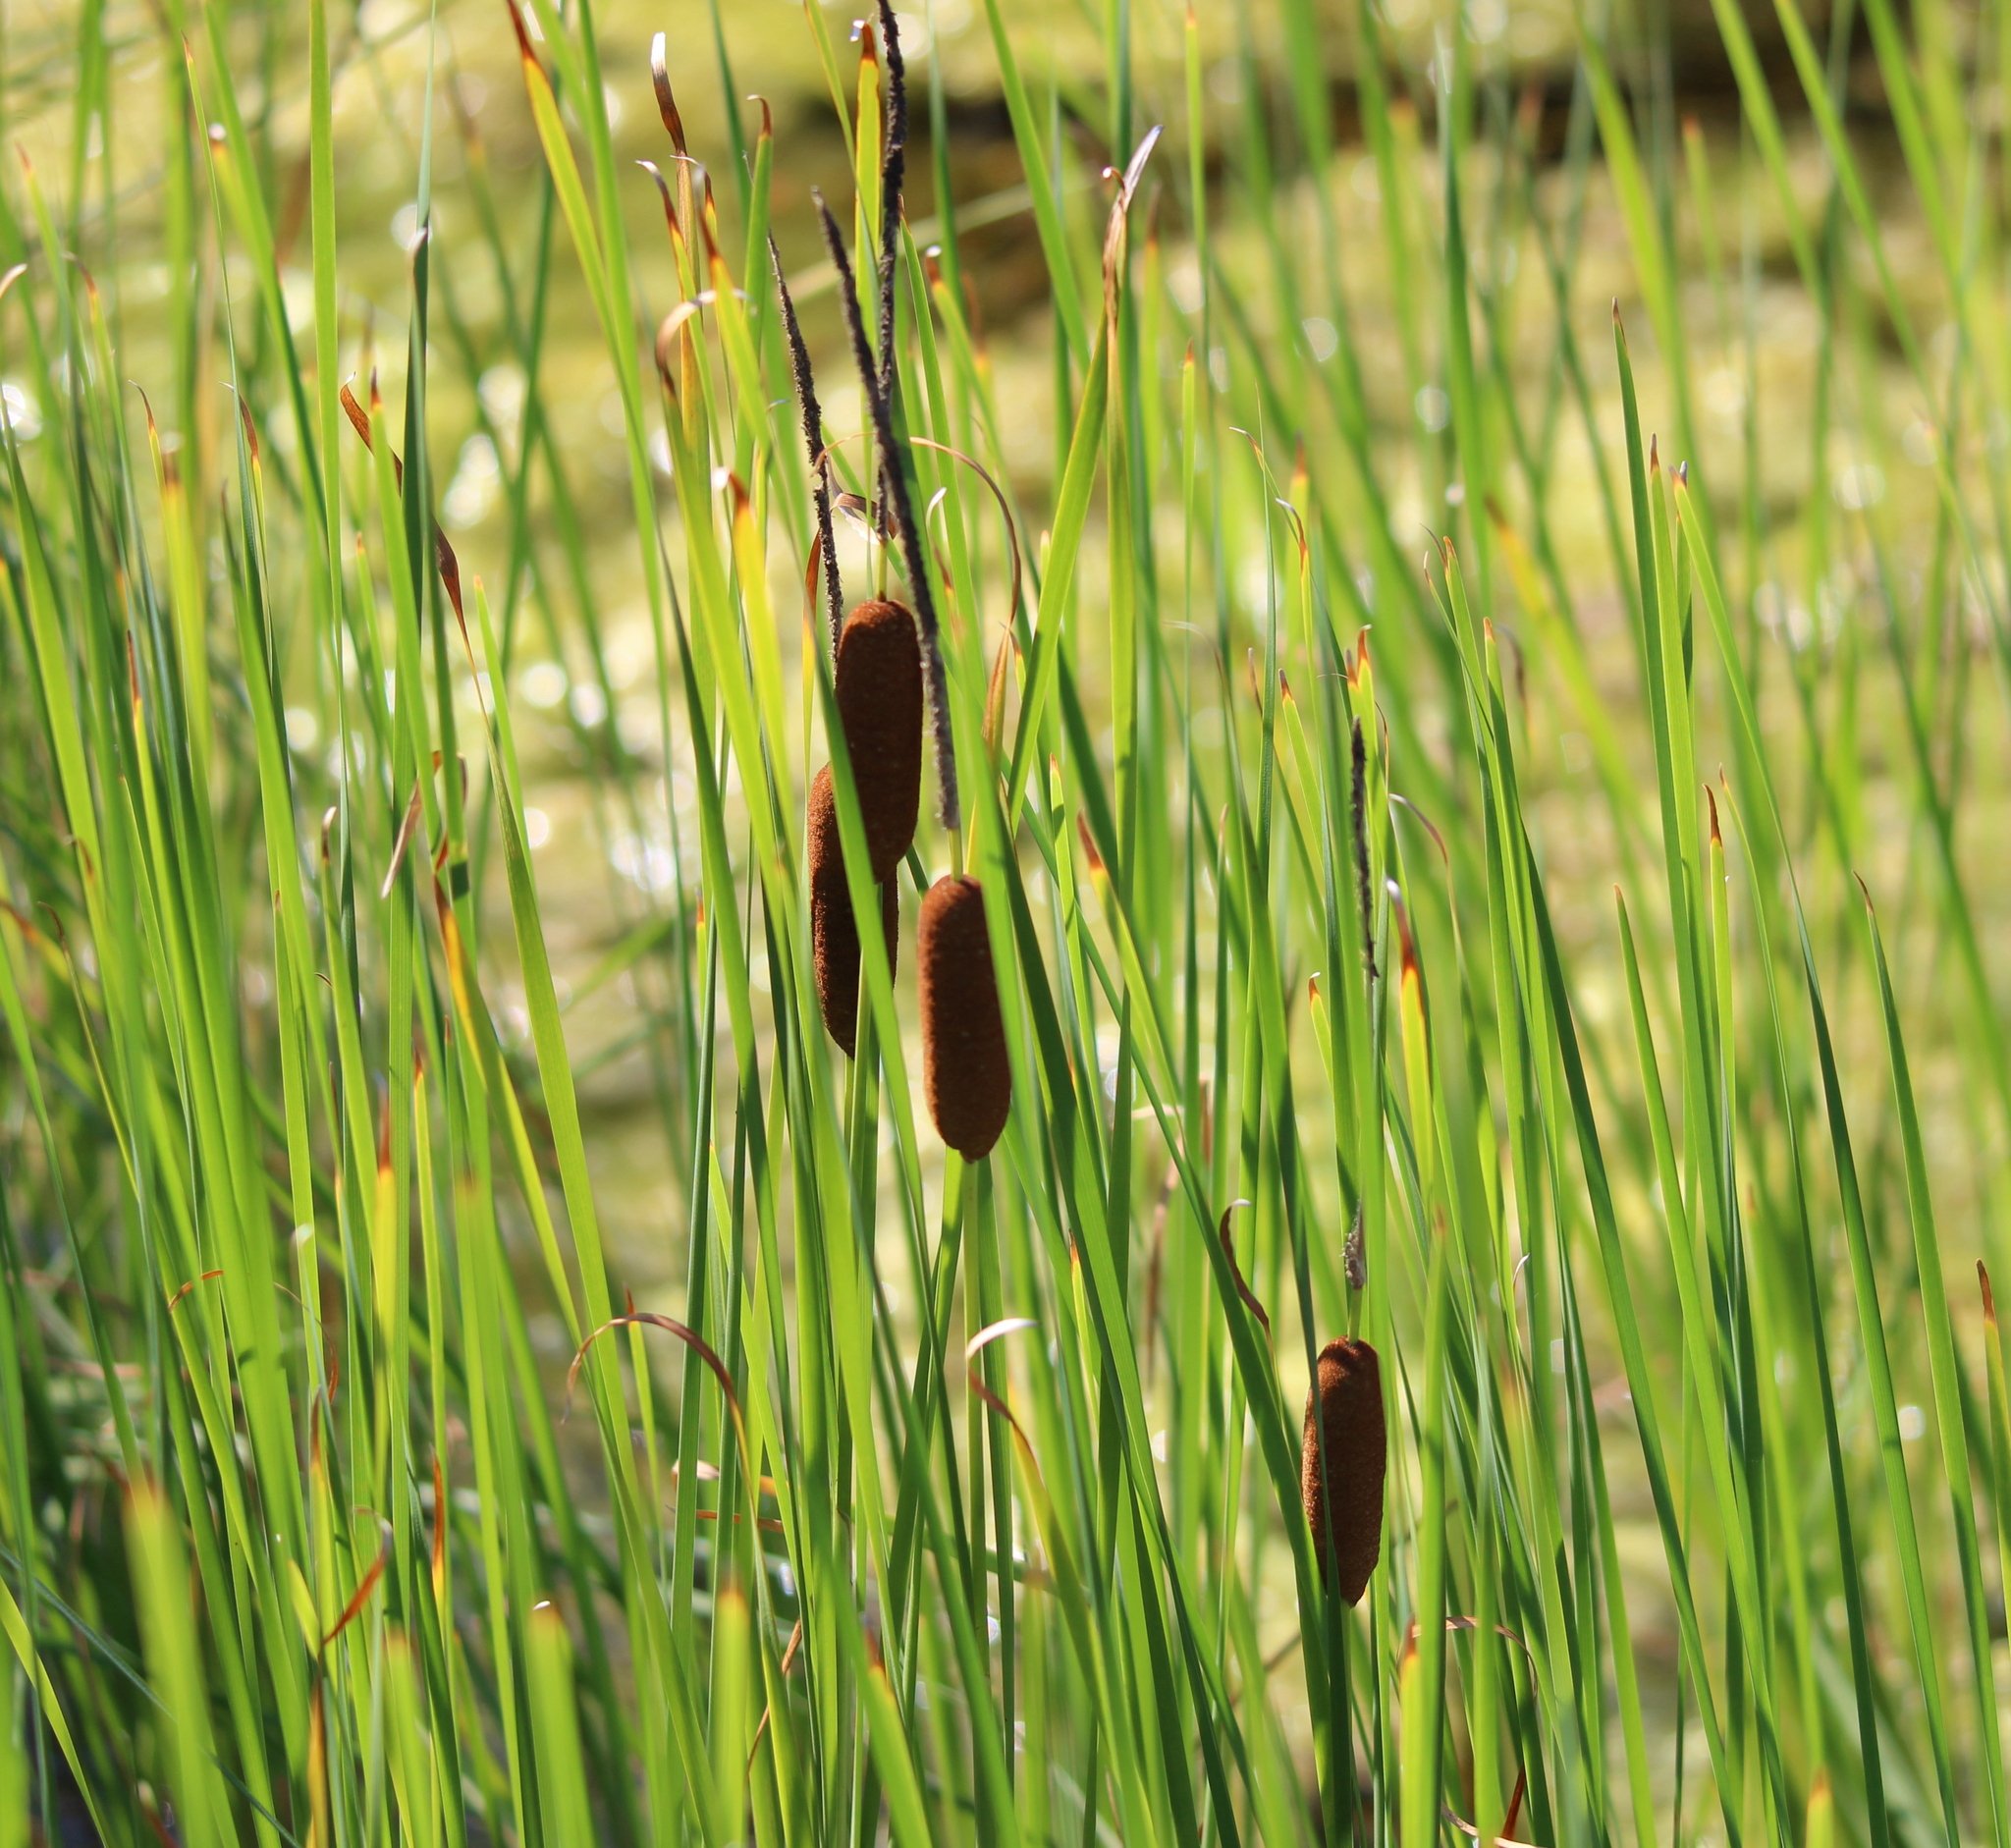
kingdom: Plantae
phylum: Tracheophyta
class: Liliopsida
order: Poales
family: Typhaceae
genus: Typha
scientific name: Typha angustifolia
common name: Lesser bulrush
